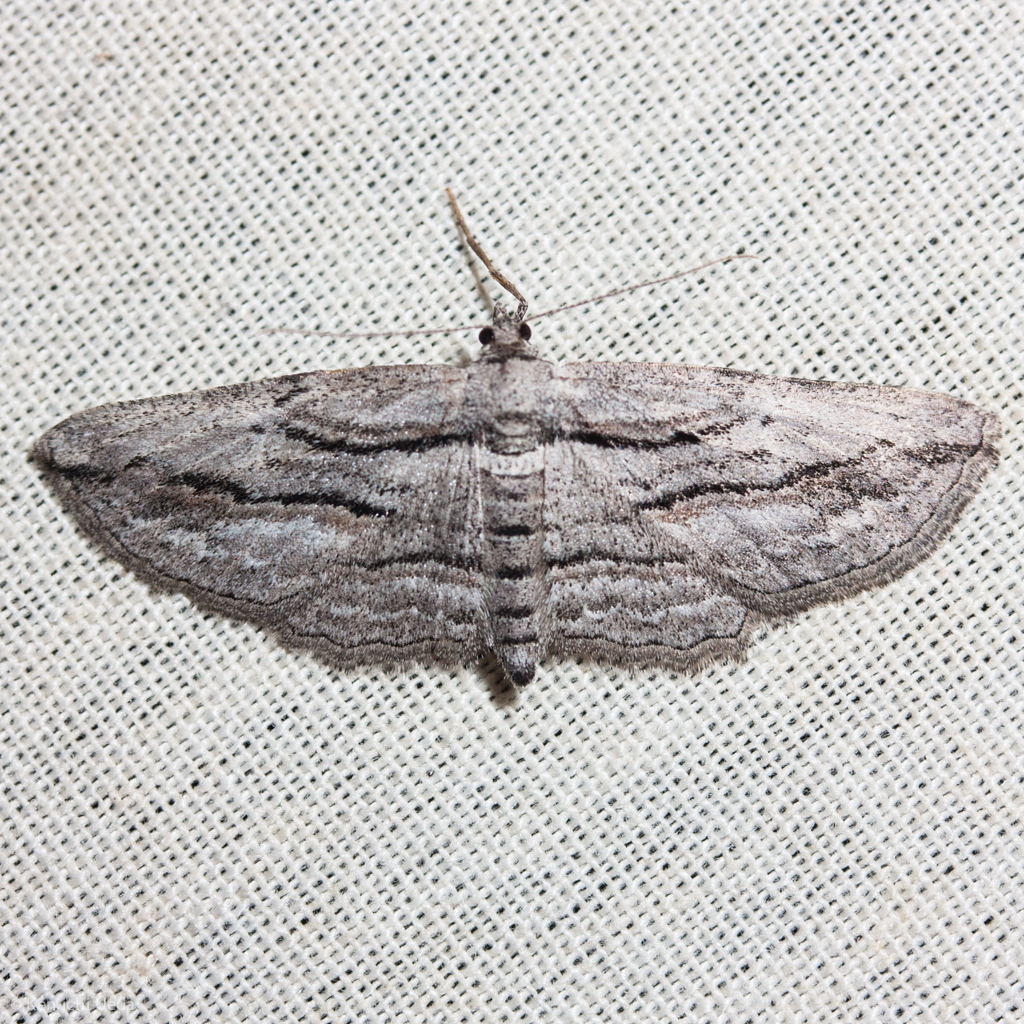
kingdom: Animalia
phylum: Arthropoda
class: Insecta
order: Lepidoptera
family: Geometridae
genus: Pterotaea
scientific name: Pterotaea lamiaria
